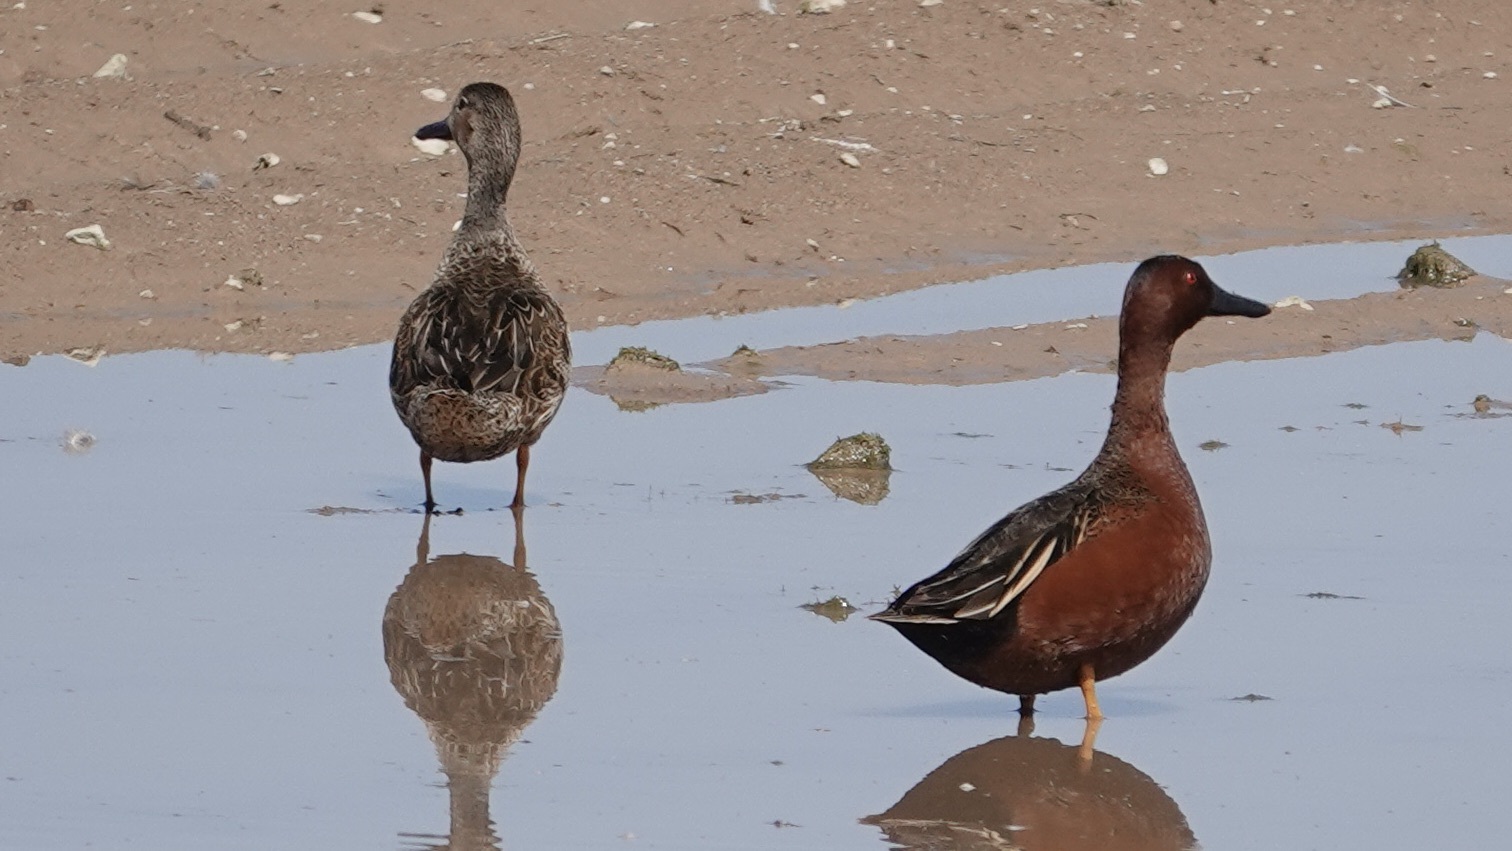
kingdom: Animalia
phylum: Chordata
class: Aves
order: Anseriformes
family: Anatidae
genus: Spatula
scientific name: Spatula cyanoptera
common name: Cinnamon teal
